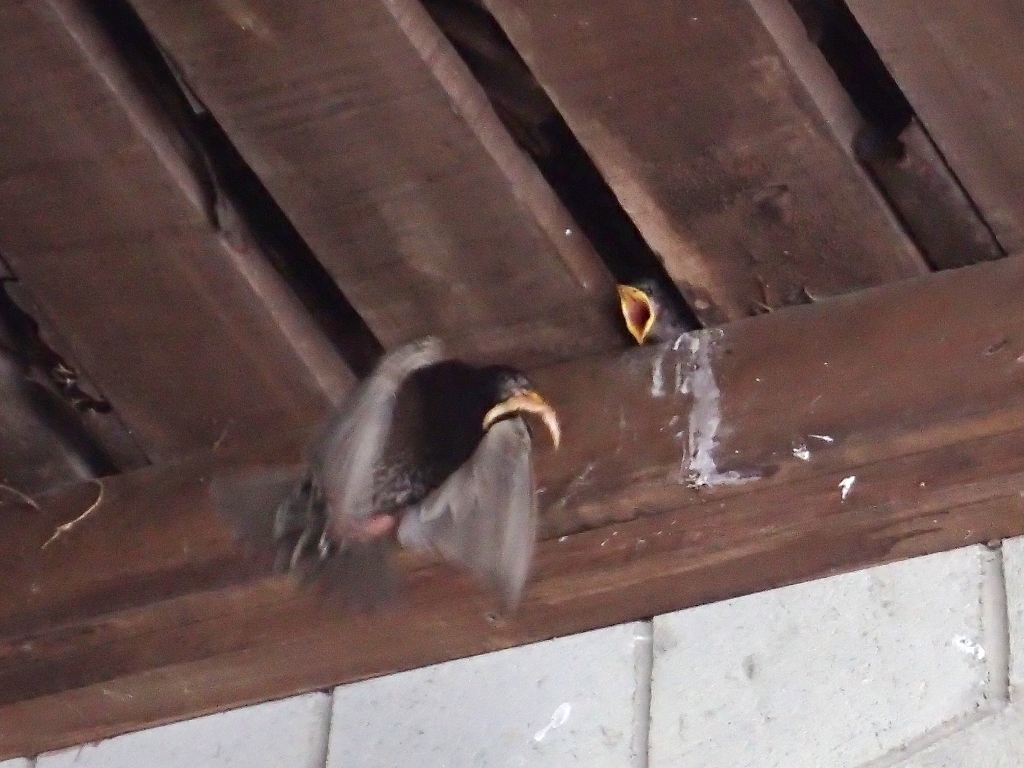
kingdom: Animalia
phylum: Chordata
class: Aves
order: Passeriformes
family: Sturnidae
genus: Sturnus
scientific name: Sturnus vulgaris
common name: Common starling
